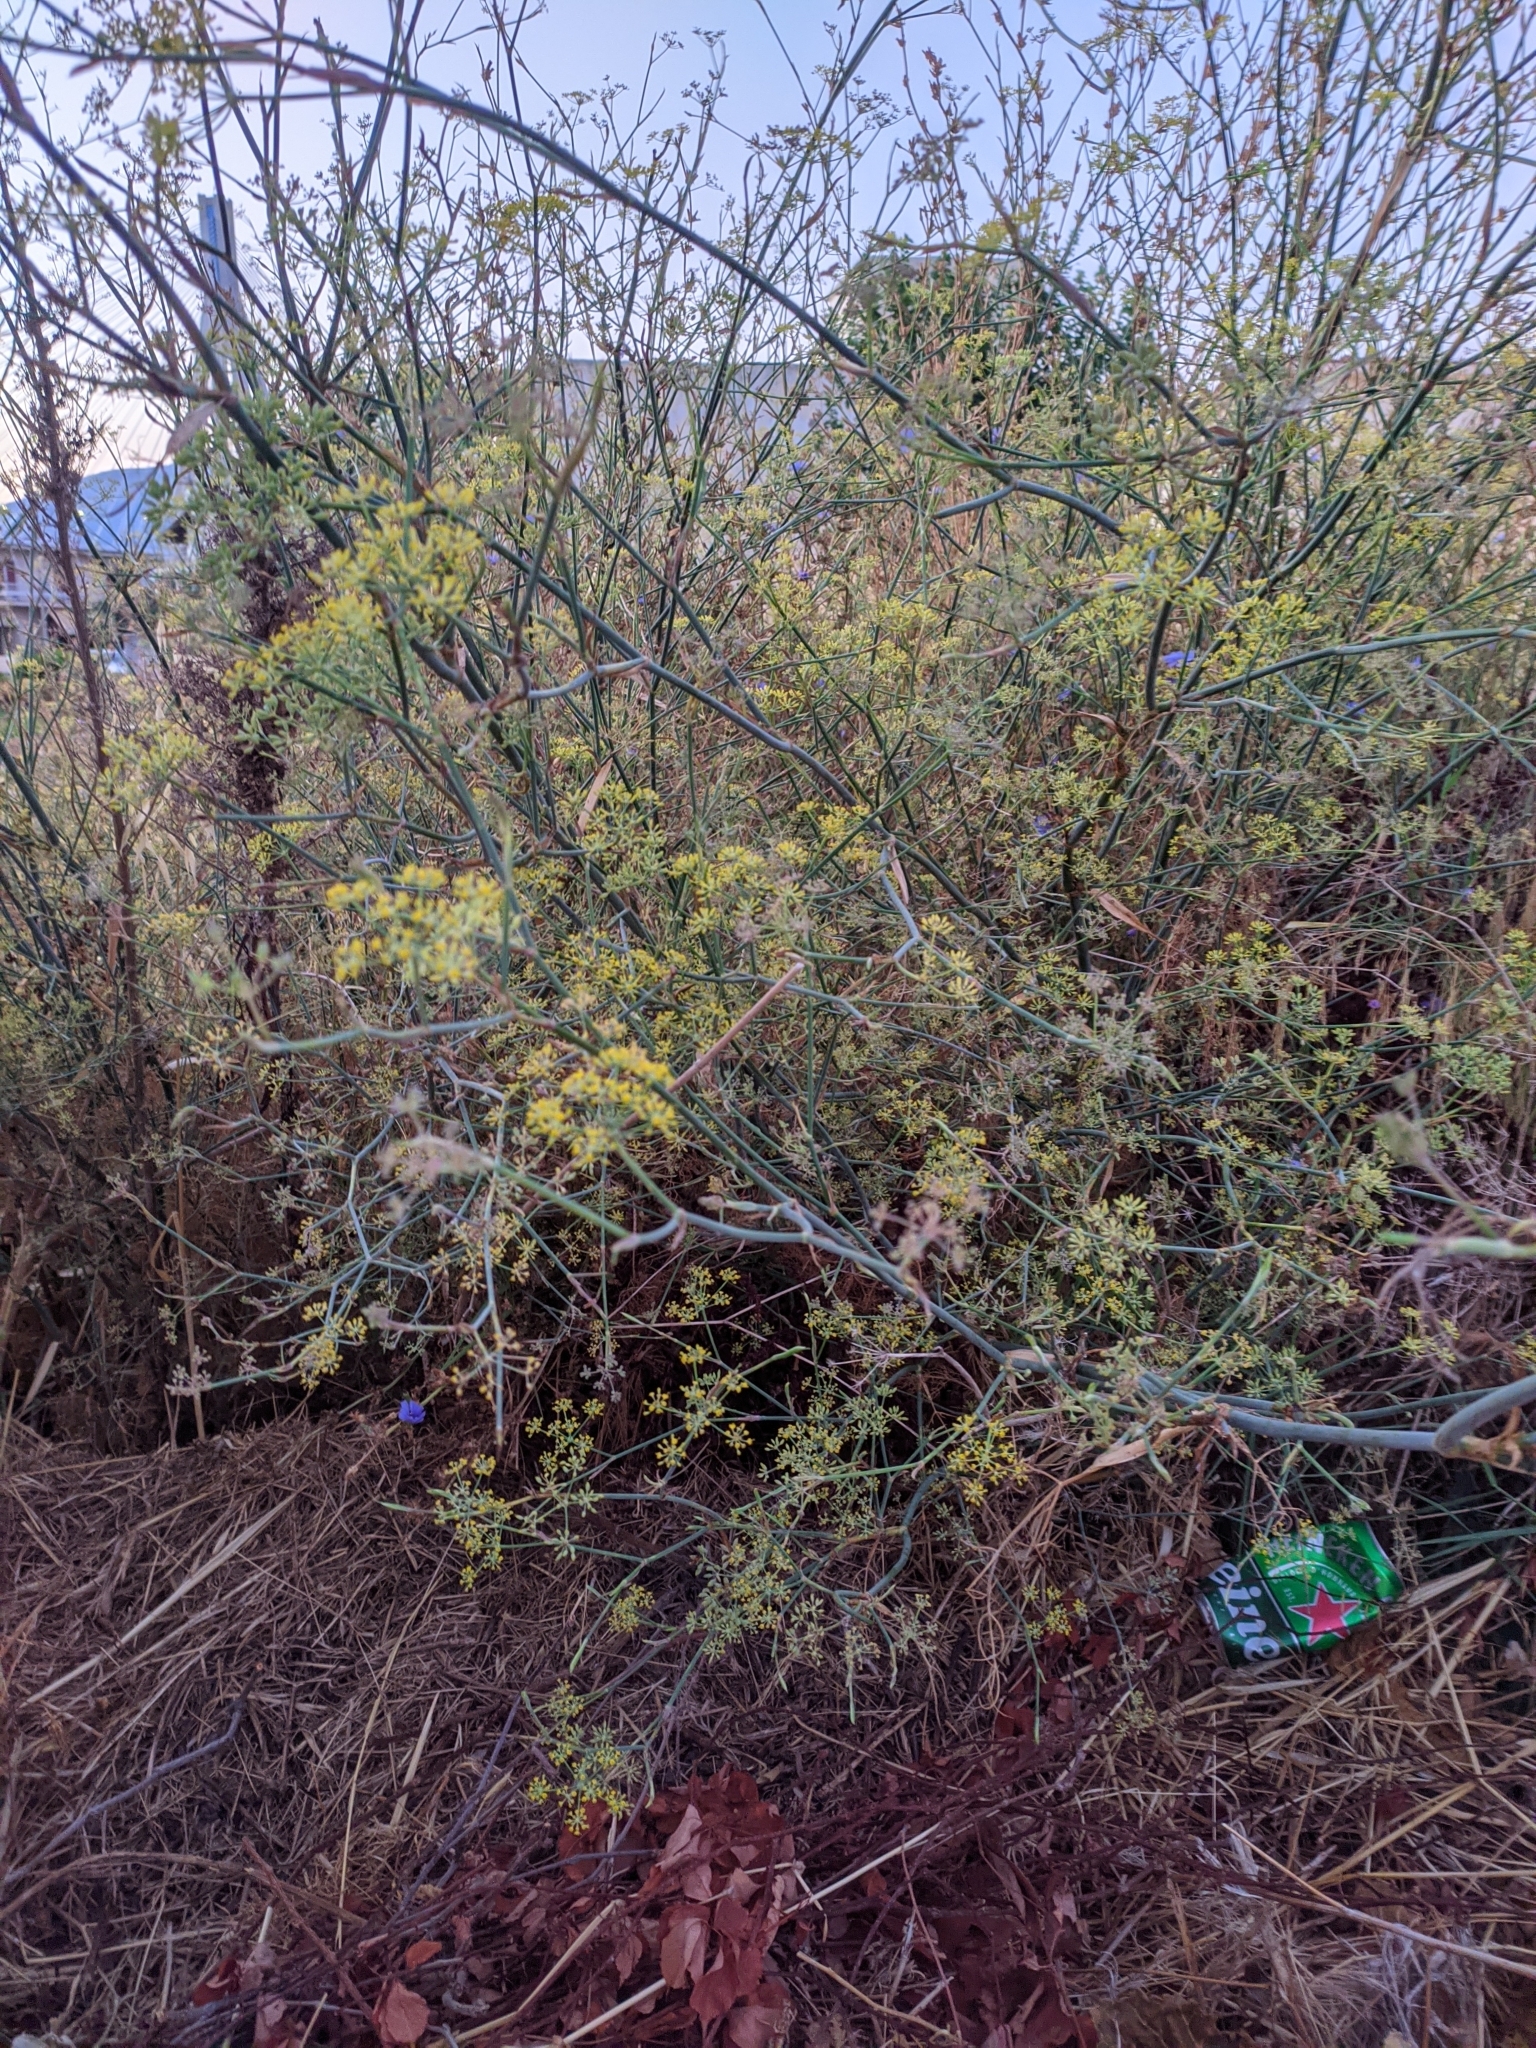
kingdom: Plantae
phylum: Tracheophyta
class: Magnoliopsida
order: Apiales
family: Apiaceae
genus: Foeniculum
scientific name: Foeniculum vulgare
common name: Fennel
